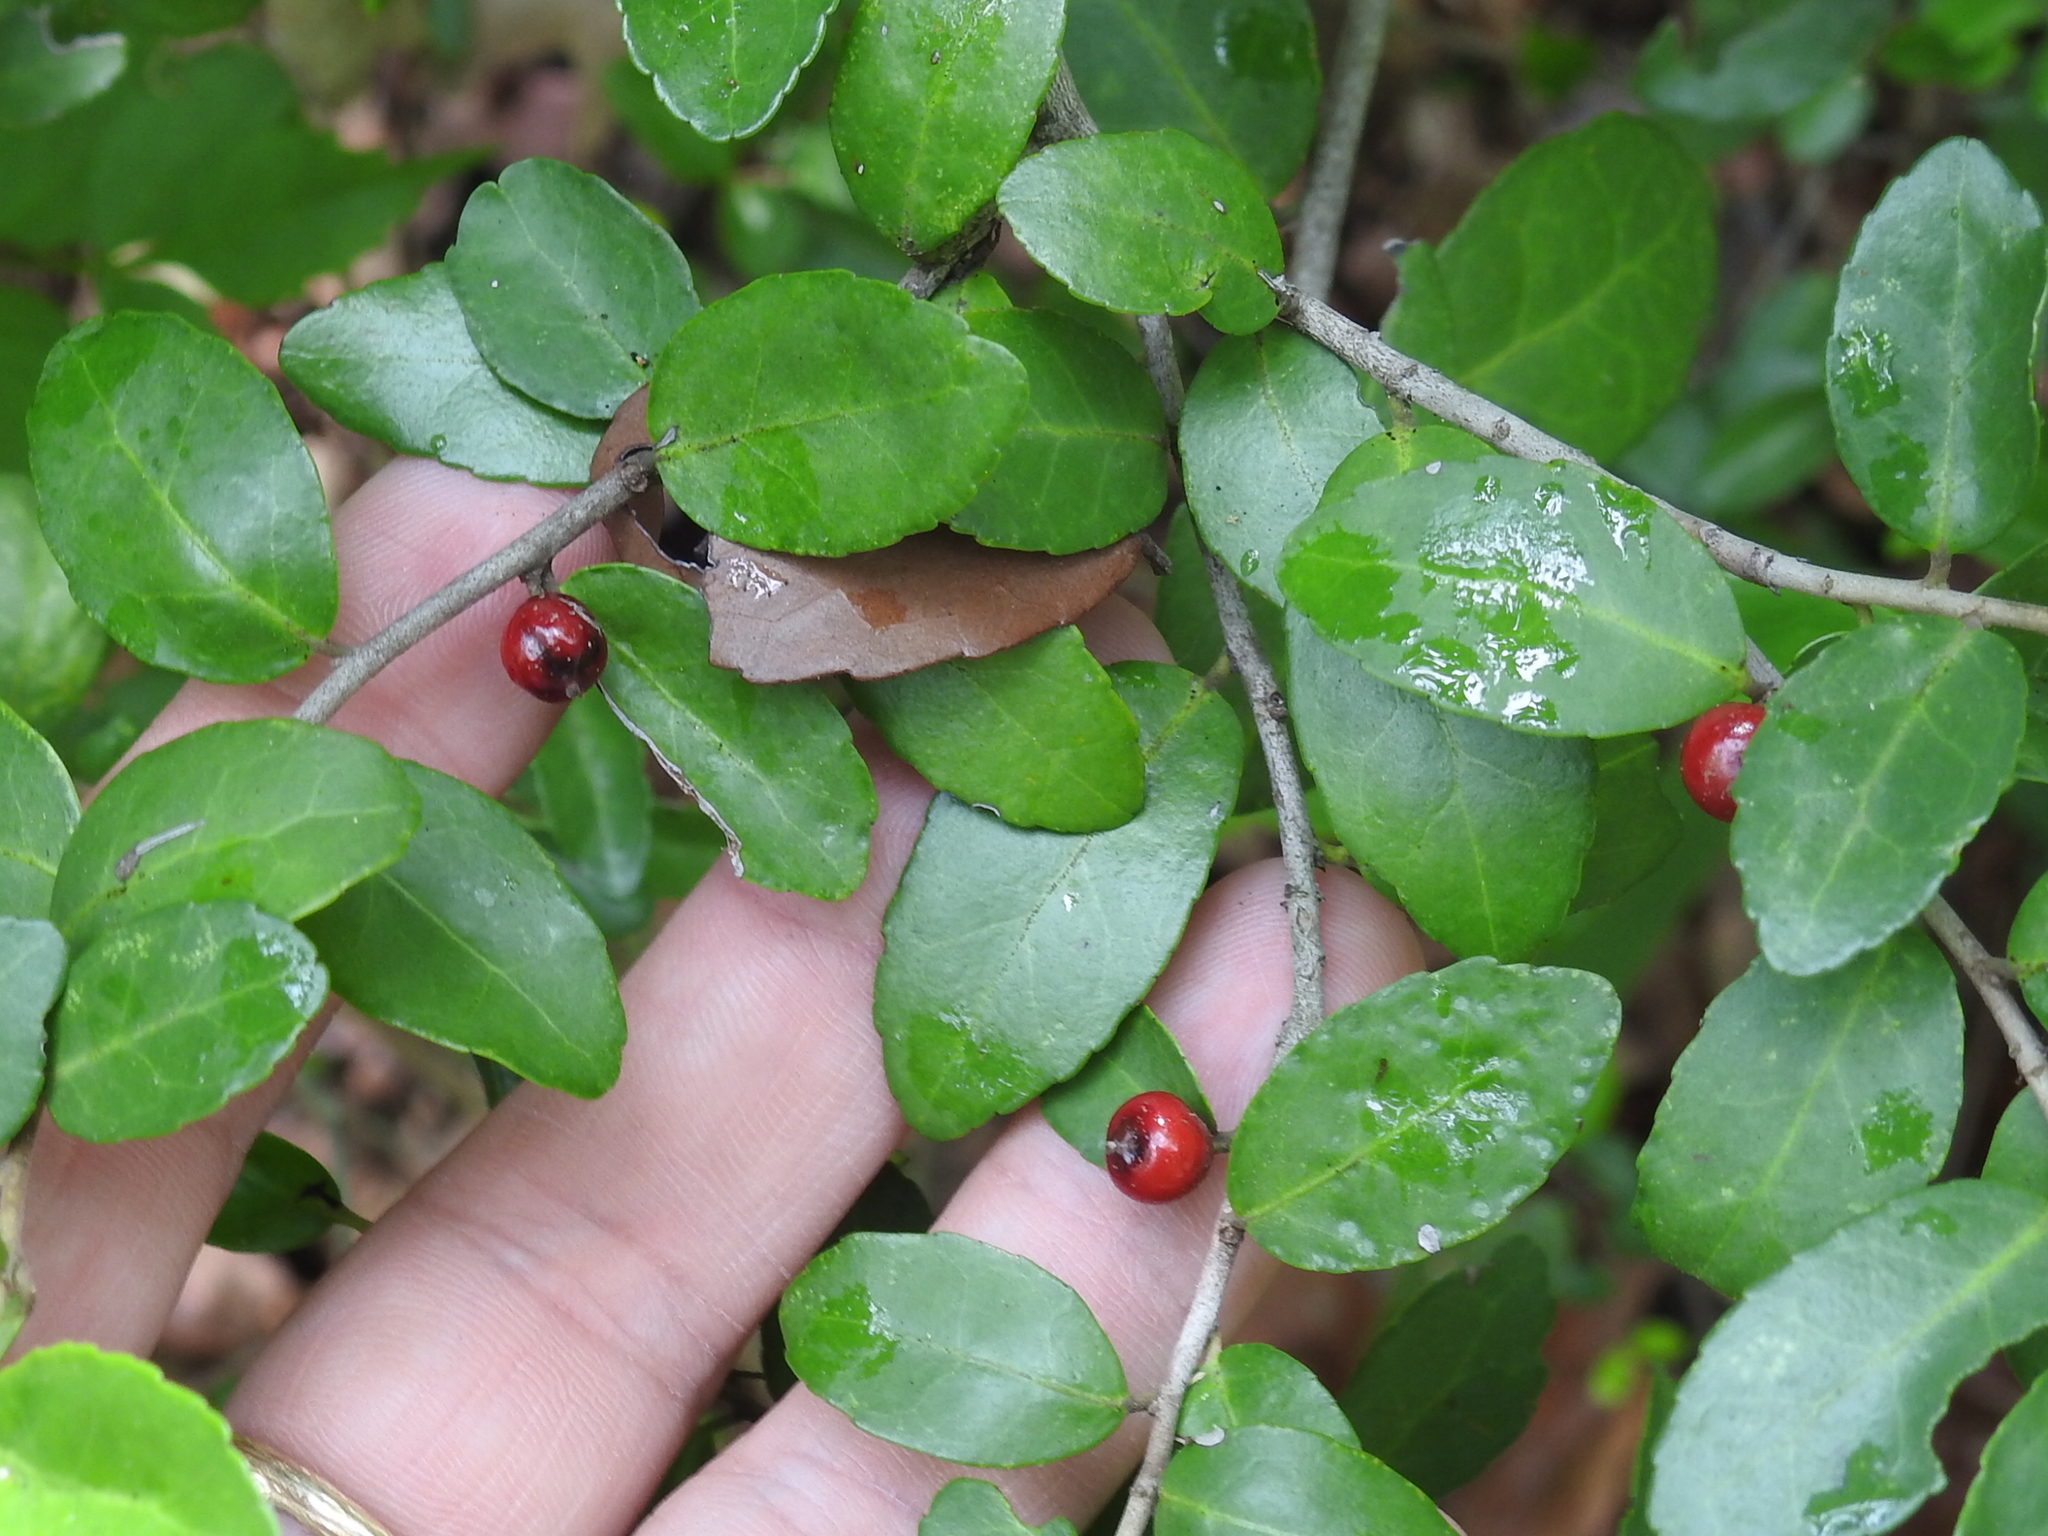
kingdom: Plantae
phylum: Tracheophyta
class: Magnoliopsida
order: Aquifoliales
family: Aquifoliaceae
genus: Ilex
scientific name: Ilex vomitoria
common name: Yaupon holly
